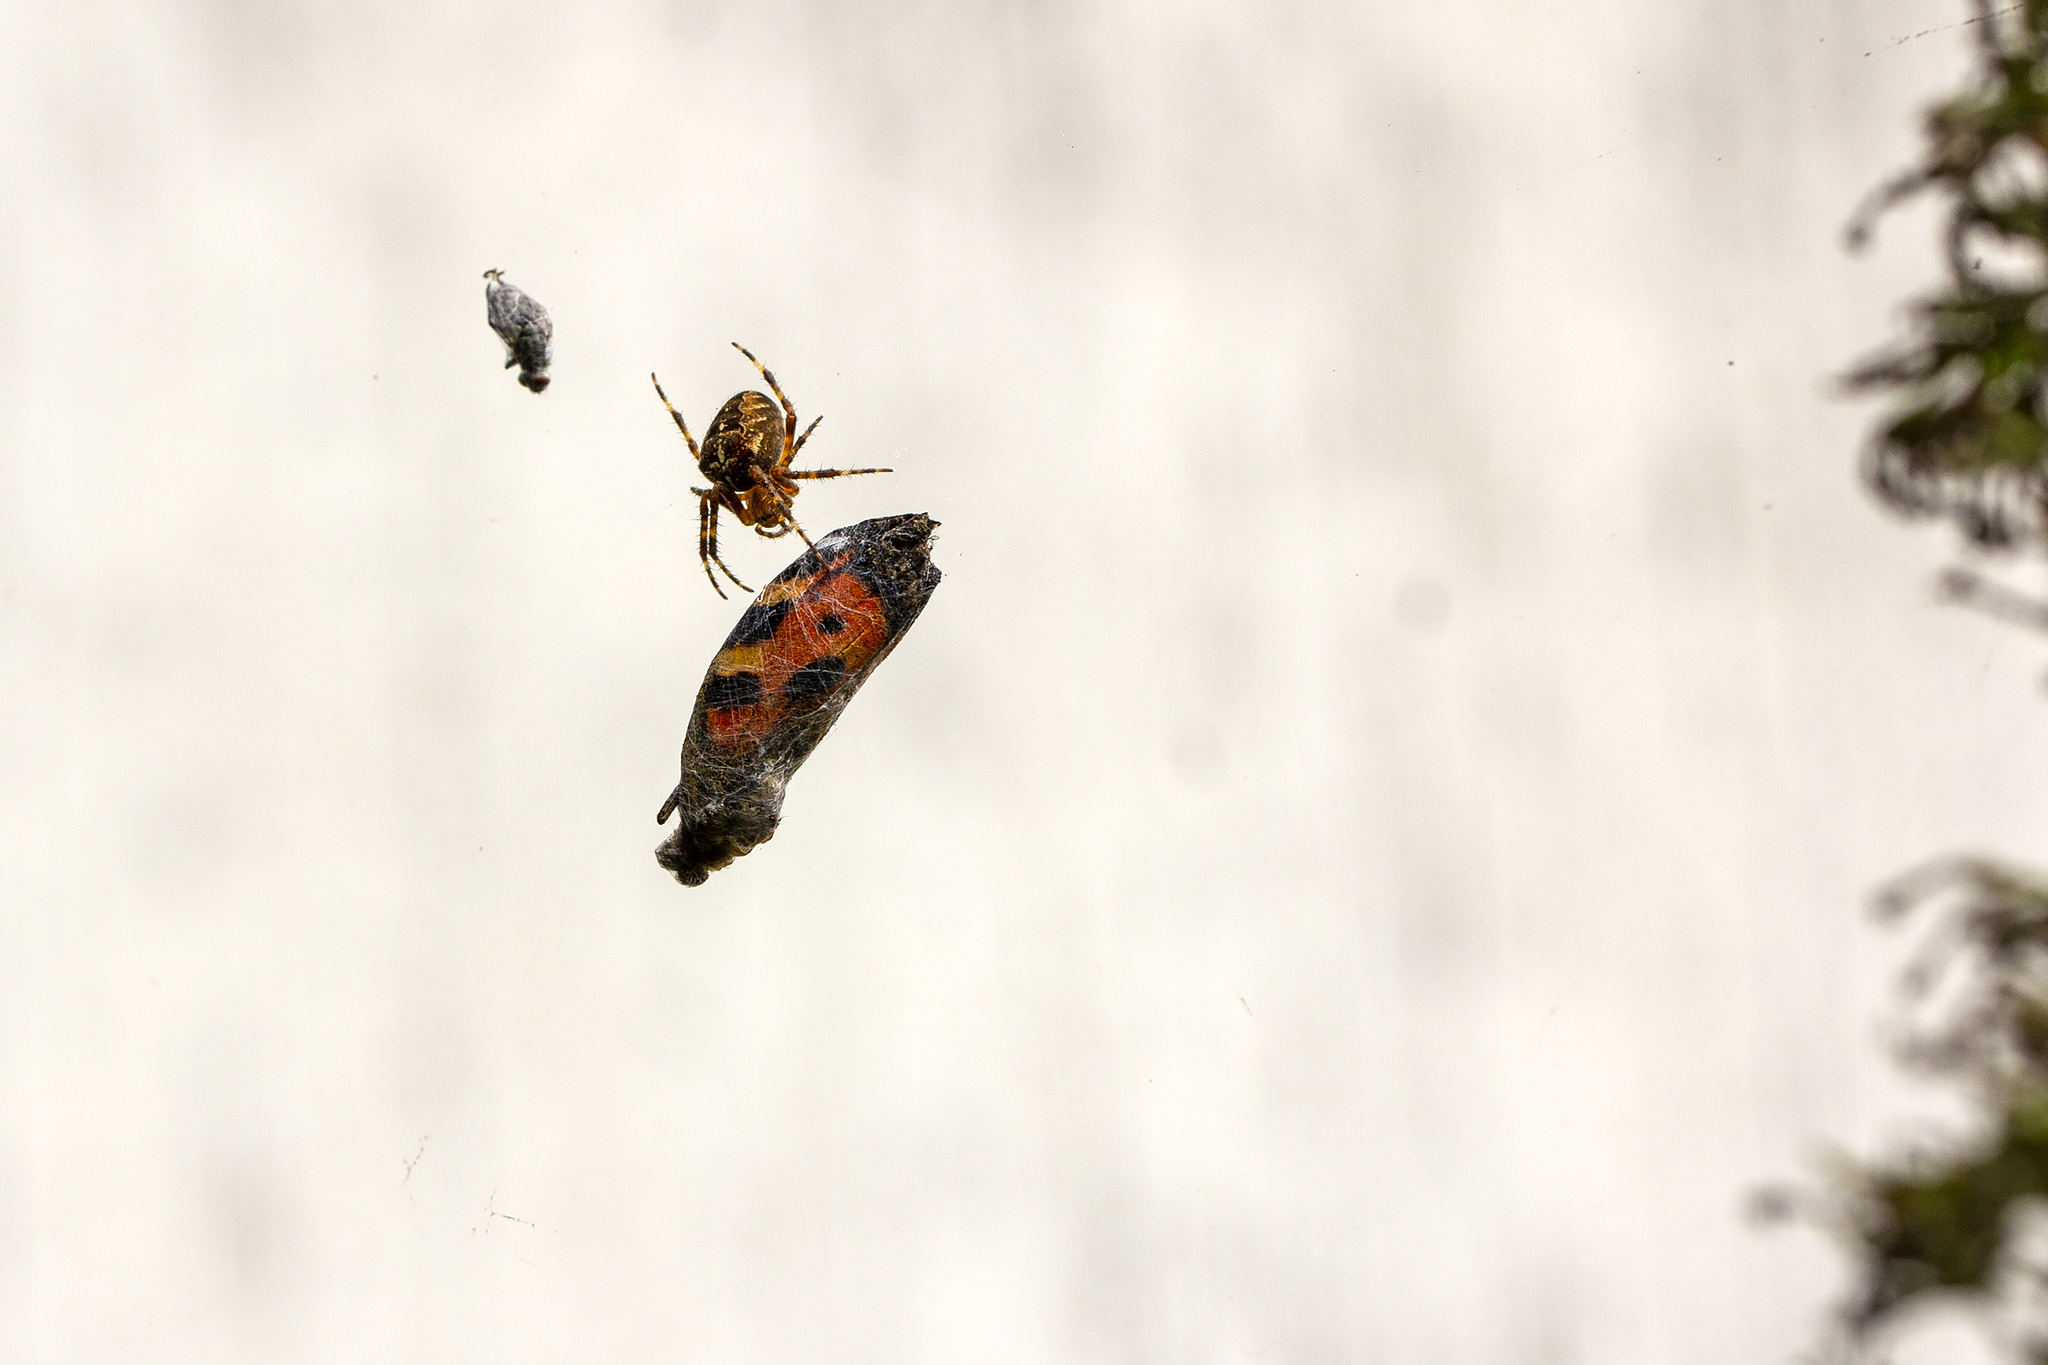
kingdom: Animalia
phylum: Arthropoda
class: Arachnida
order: Araneae
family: Araneidae
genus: Araneus
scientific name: Araneus diadematus
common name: Cross orbweaver
